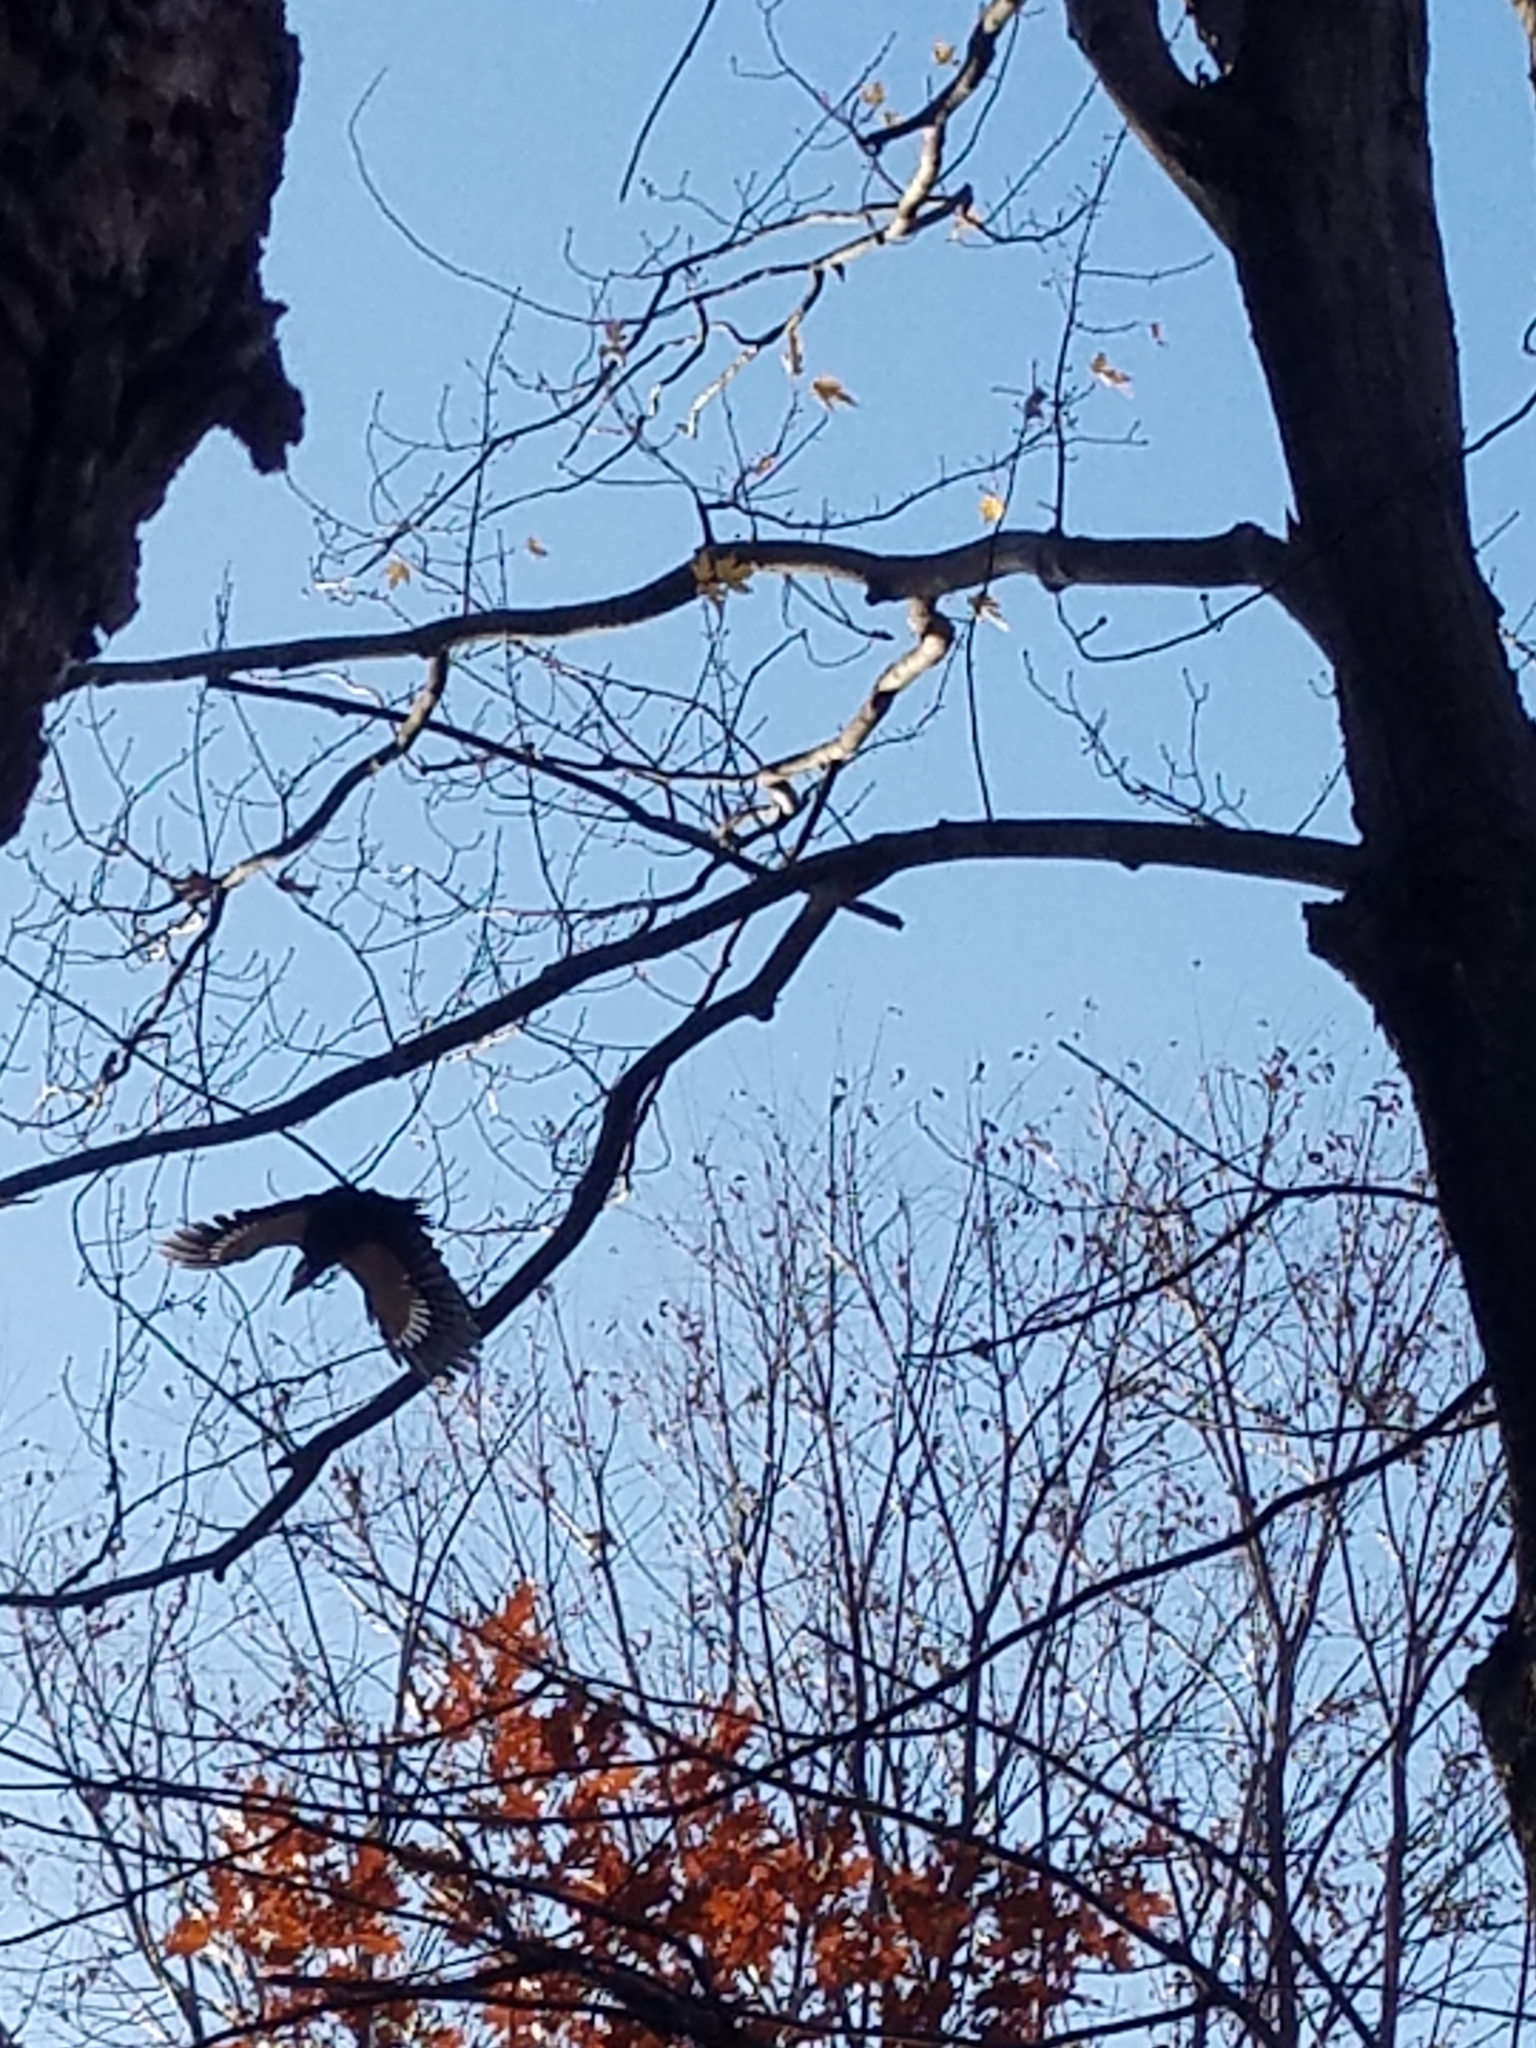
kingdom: Animalia
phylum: Chordata
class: Aves
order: Piciformes
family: Picidae
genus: Dryocopus
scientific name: Dryocopus pileatus
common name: Pileated woodpecker
